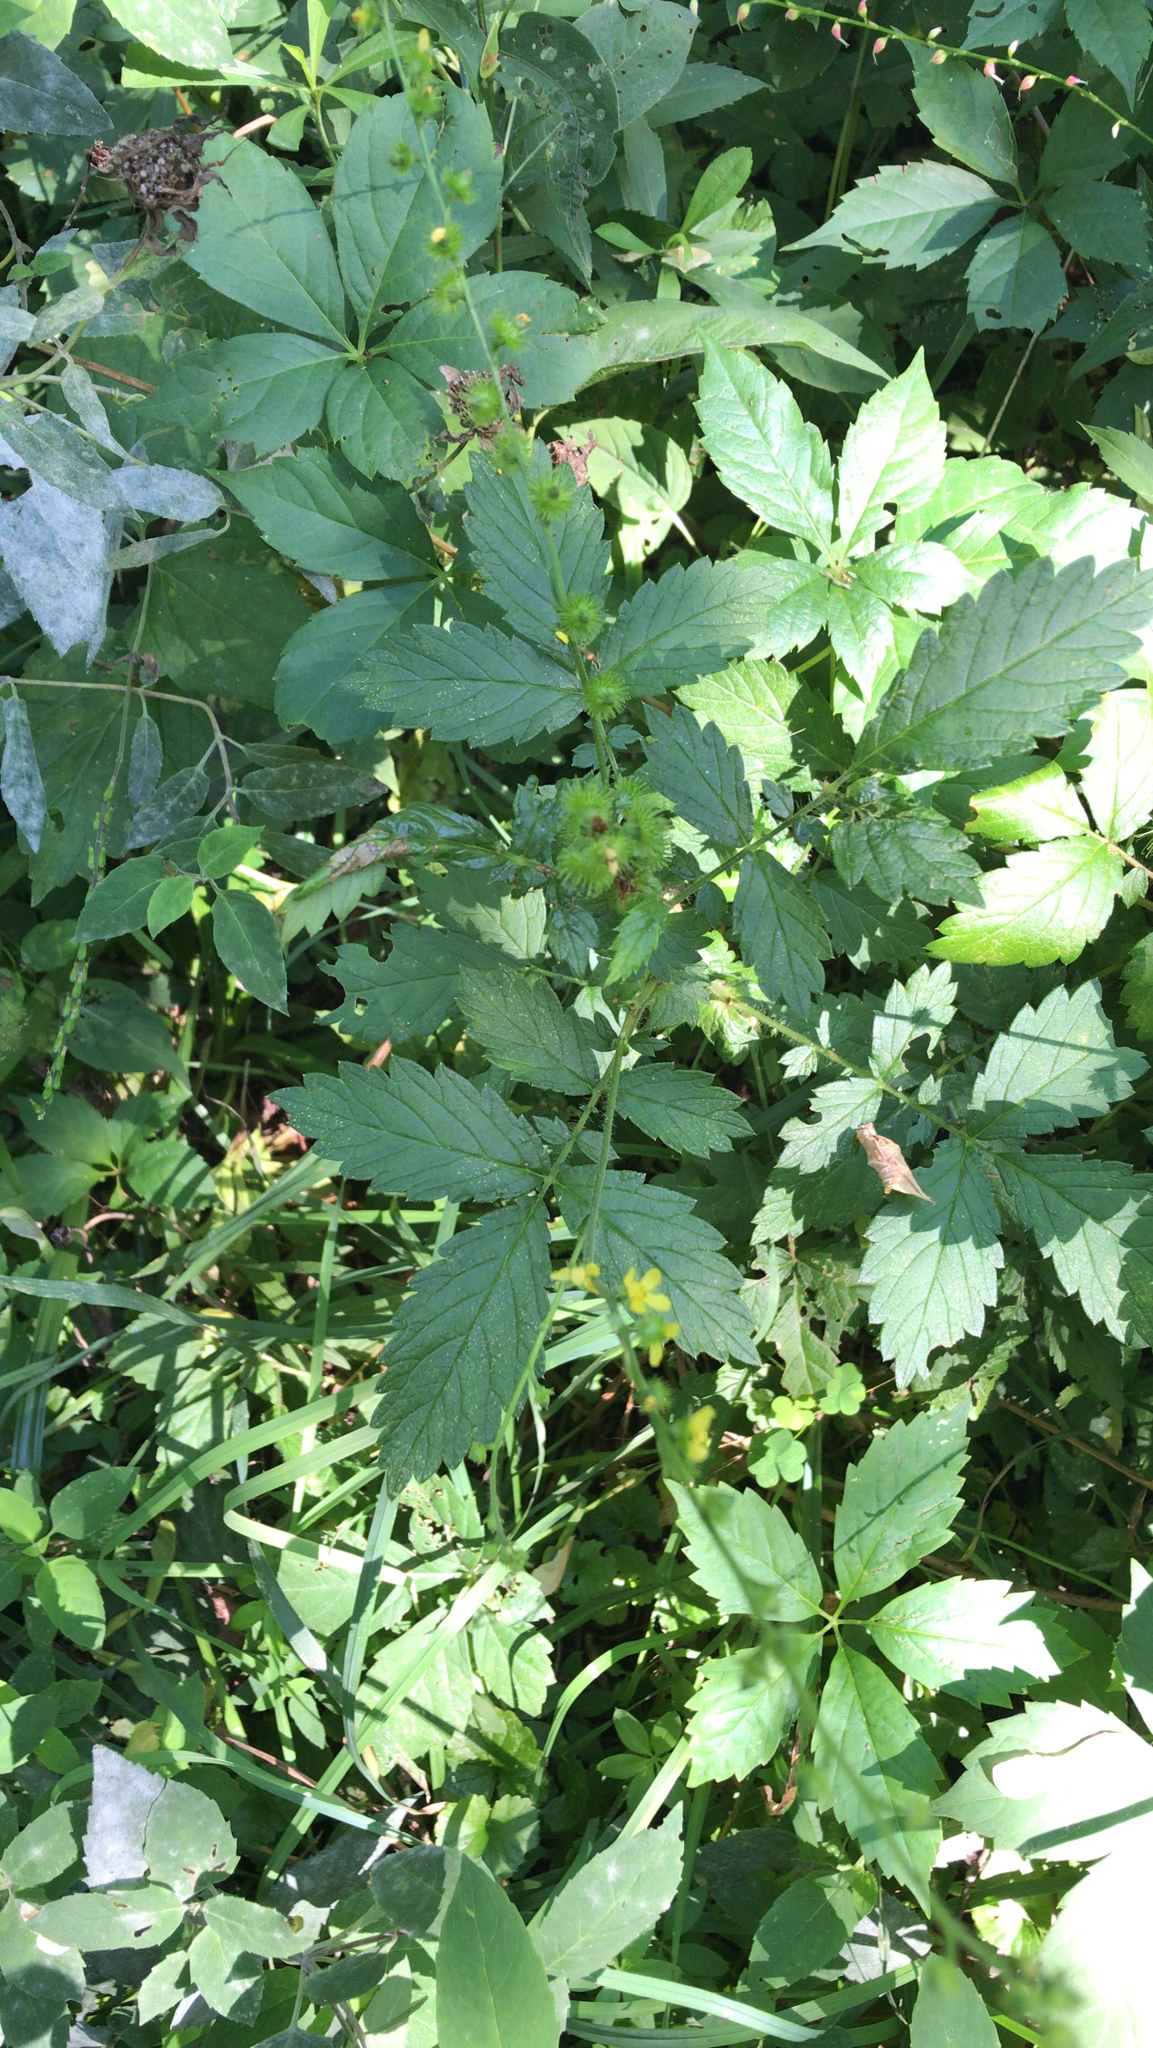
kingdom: Plantae
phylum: Tracheophyta
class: Magnoliopsida
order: Rosales
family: Rosaceae
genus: Agrimonia
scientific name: Agrimonia gryposepala
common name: Common agrimony
